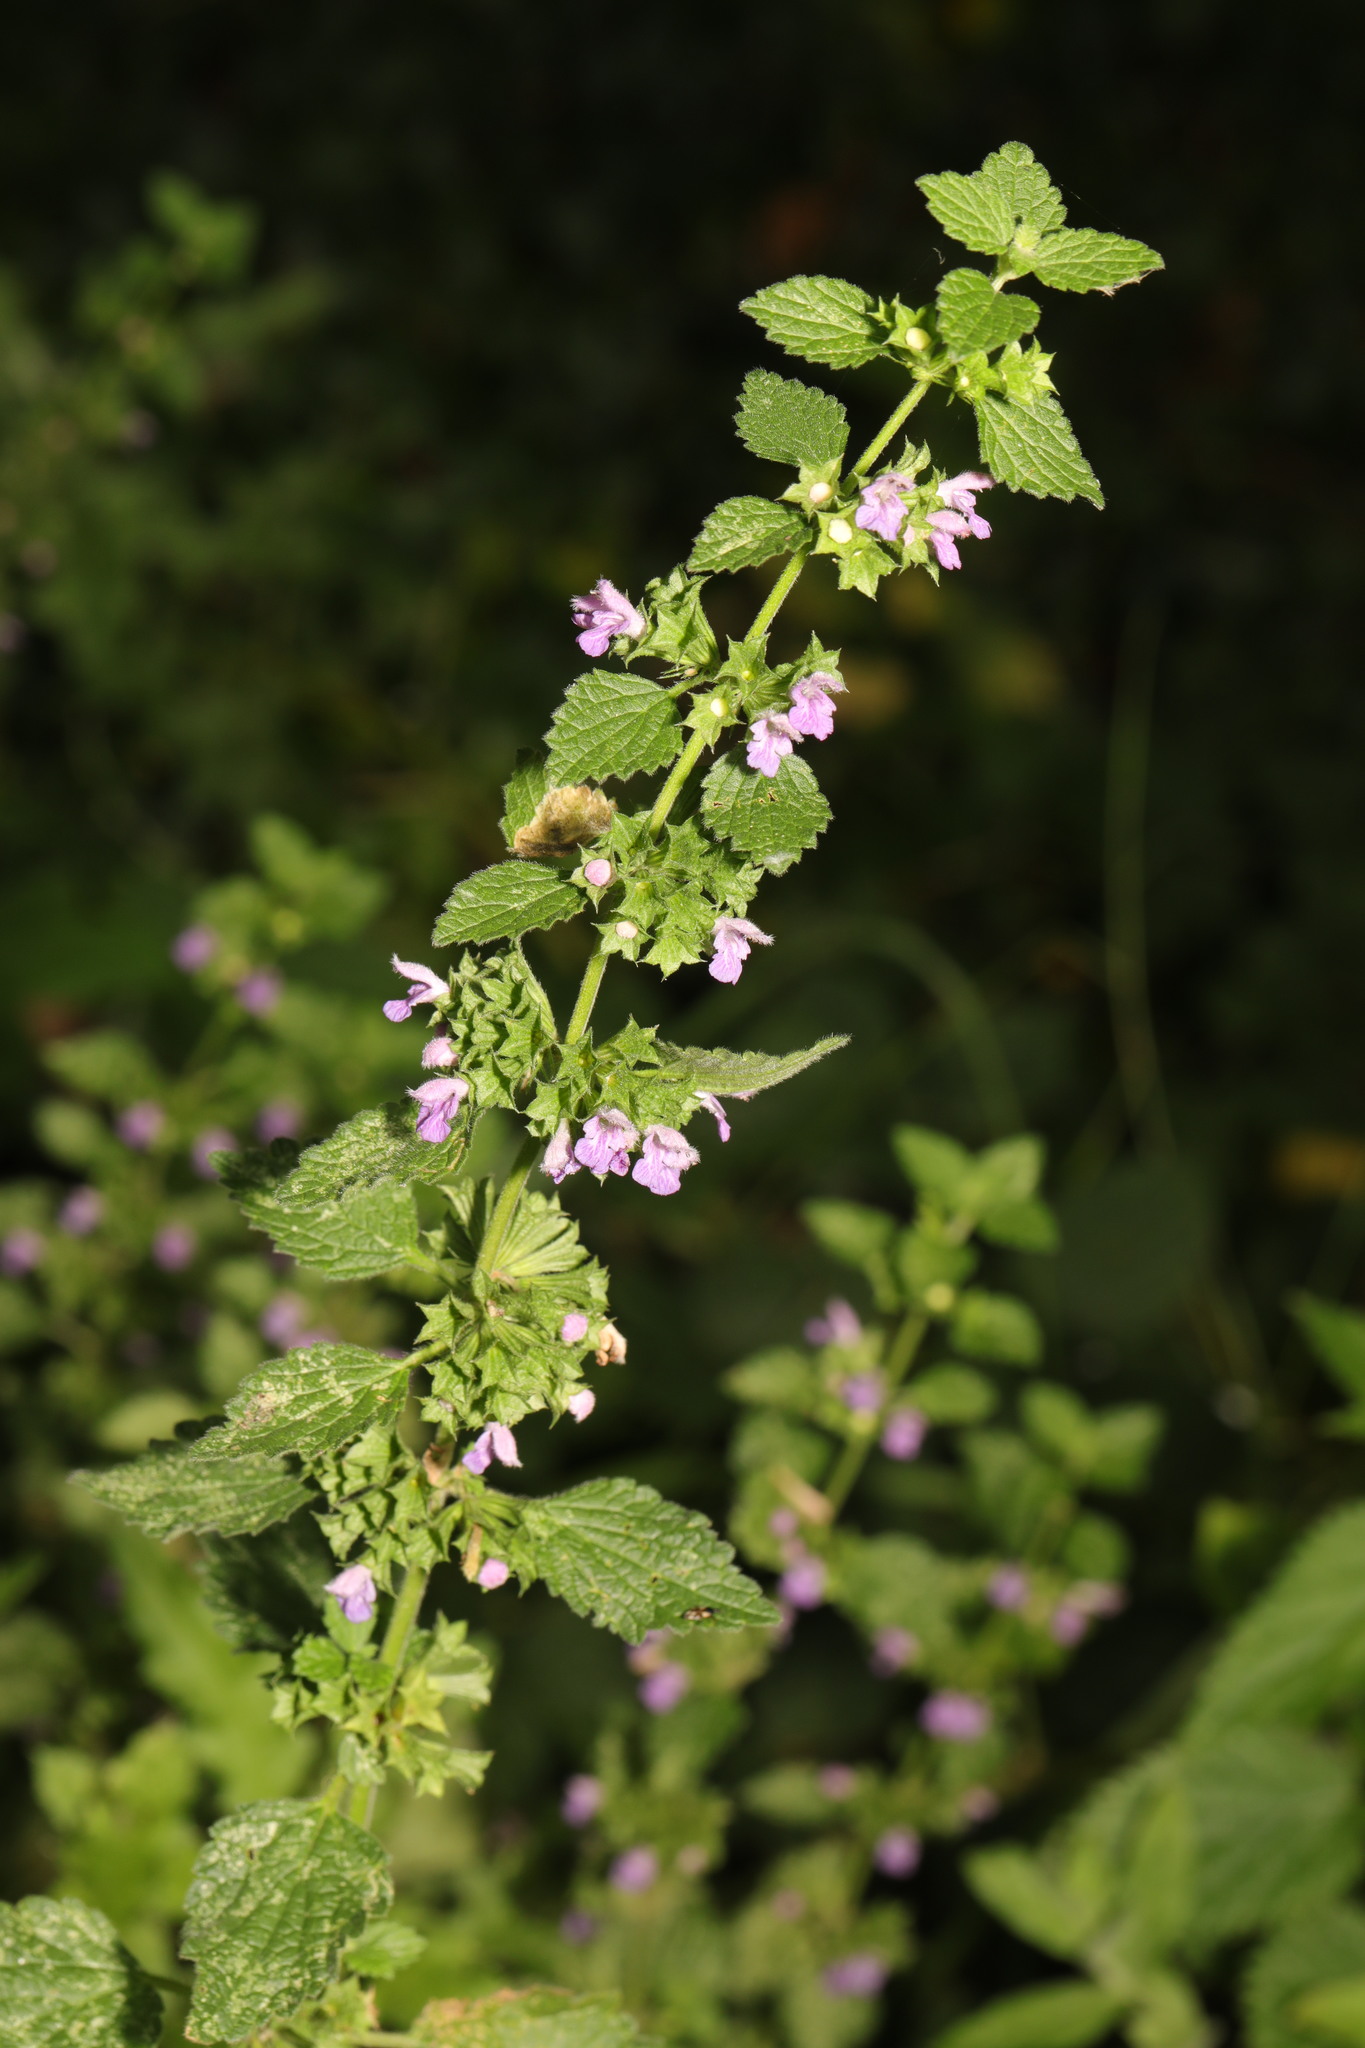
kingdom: Plantae
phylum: Tracheophyta
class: Magnoliopsida
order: Lamiales
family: Lamiaceae
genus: Ballota
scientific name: Ballota nigra
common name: Black horehound
